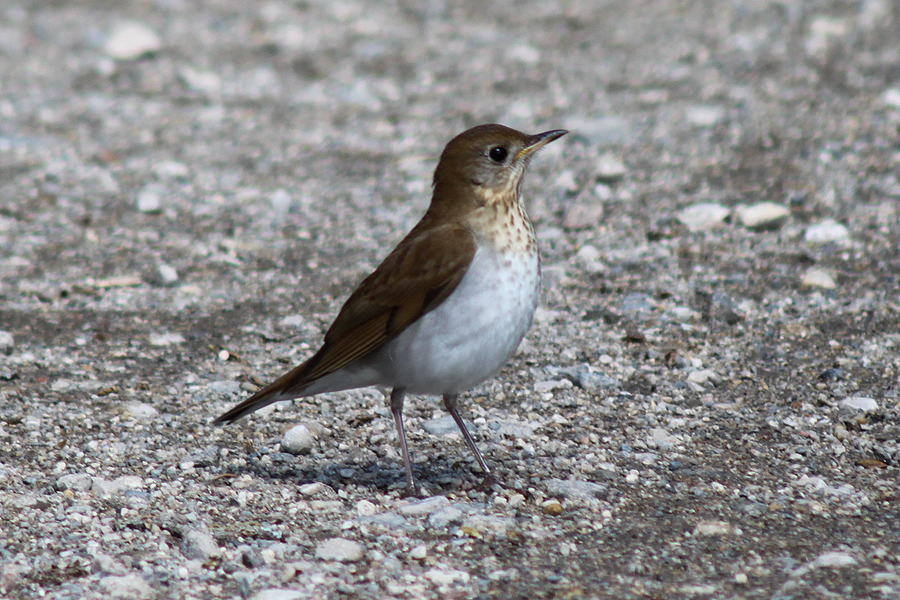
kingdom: Animalia
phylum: Chordata
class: Aves
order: Passeriformes
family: Turdidae
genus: Catharus
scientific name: Catharus fuscescens
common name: Veery
